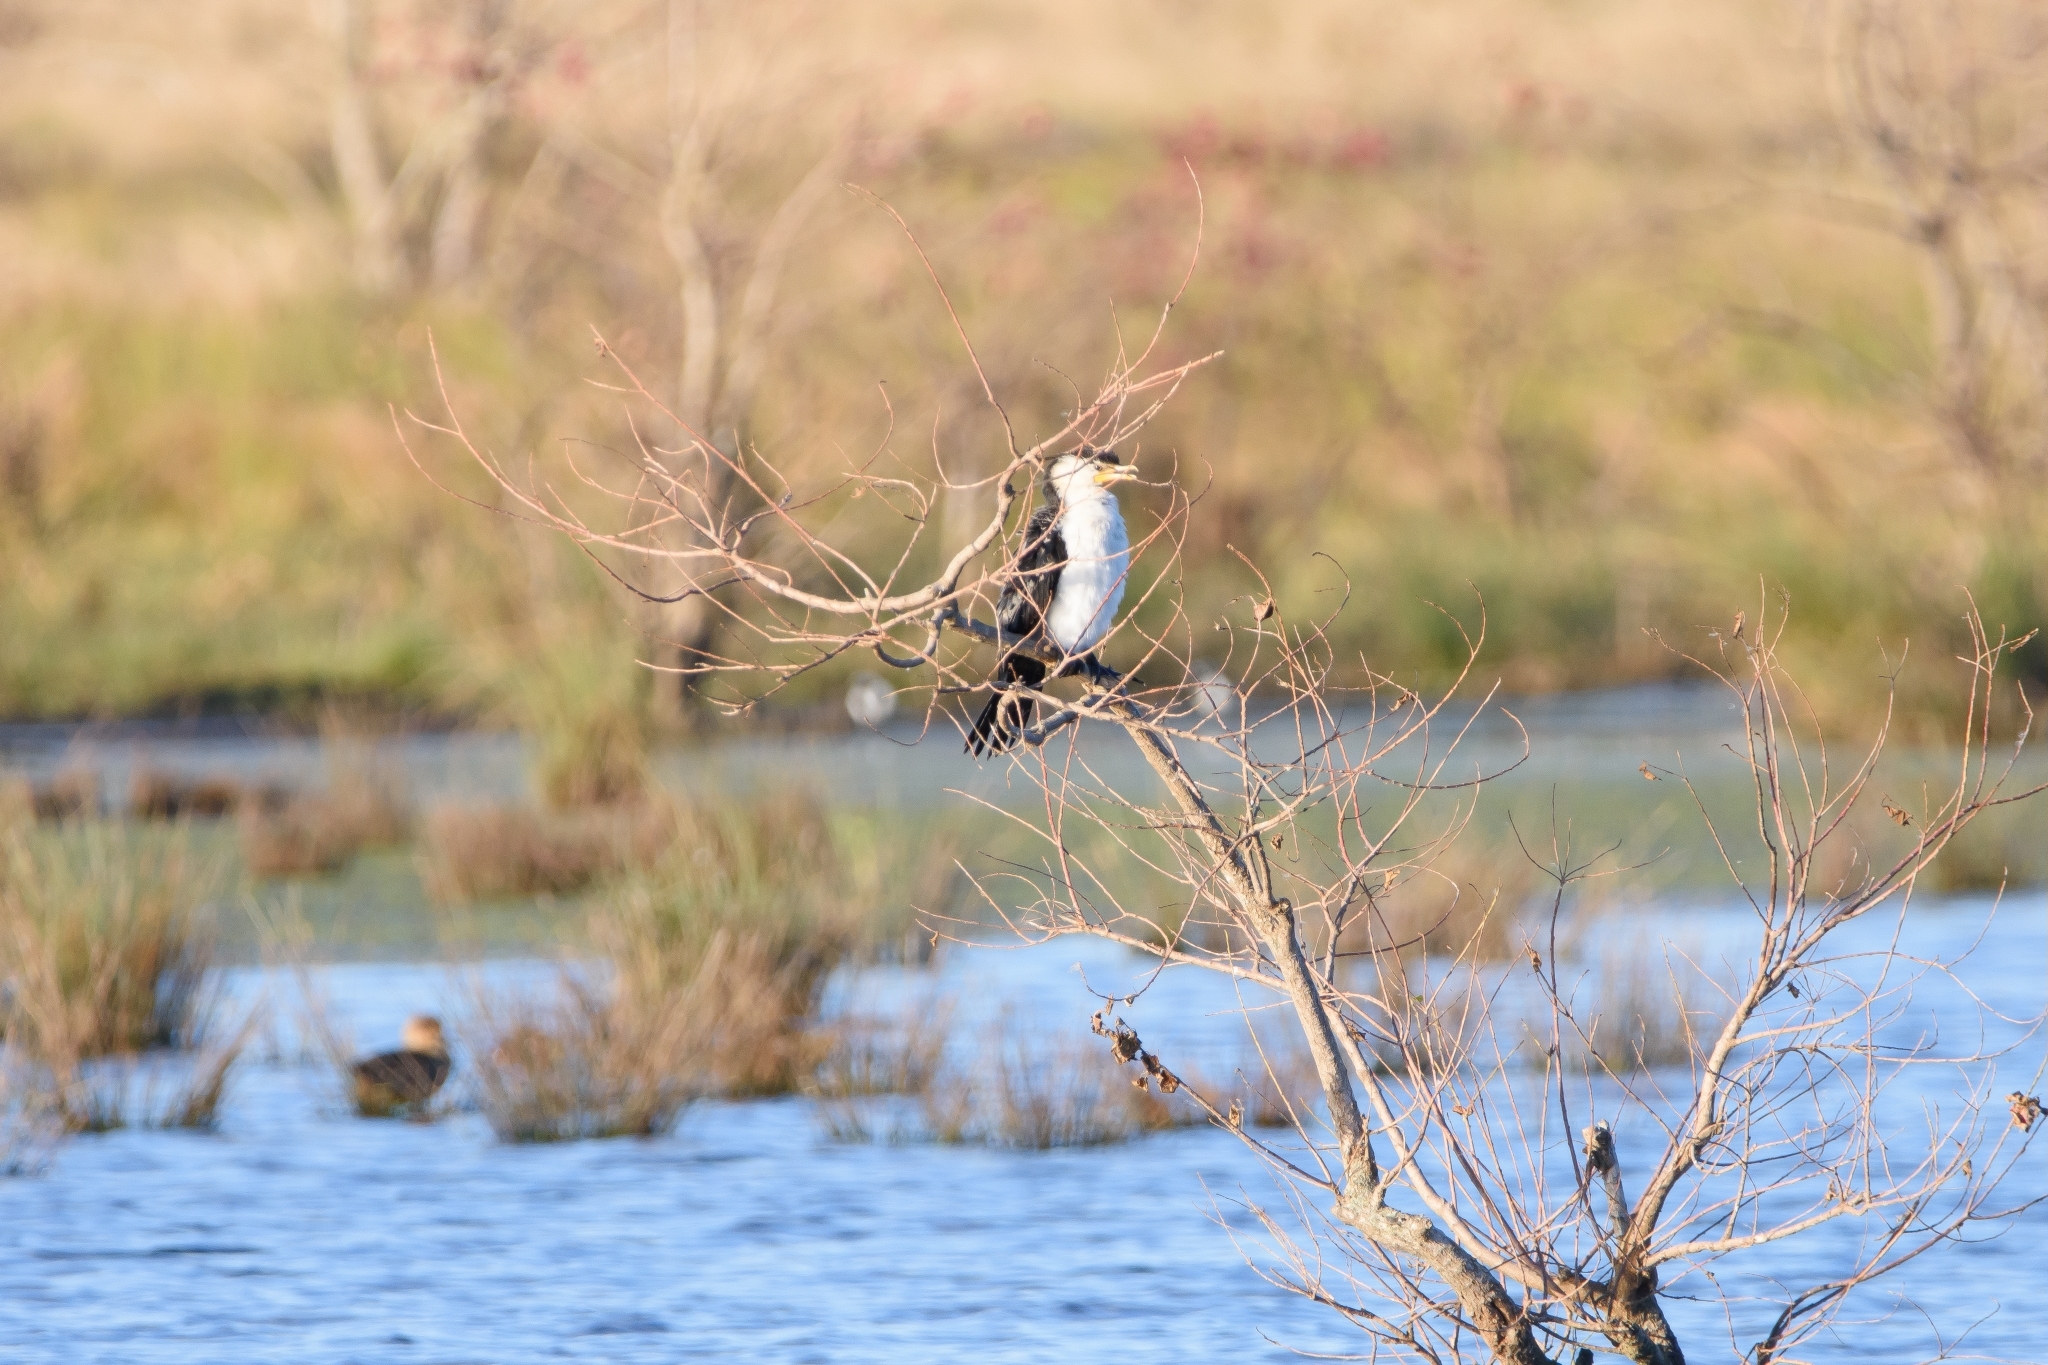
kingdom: Animalia
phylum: Chordata
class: Aves
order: Suliformes
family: Phalacrocoracidae
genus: Microcarbo
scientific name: Microcarbo melanoleucos
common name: Little pied cormorant
